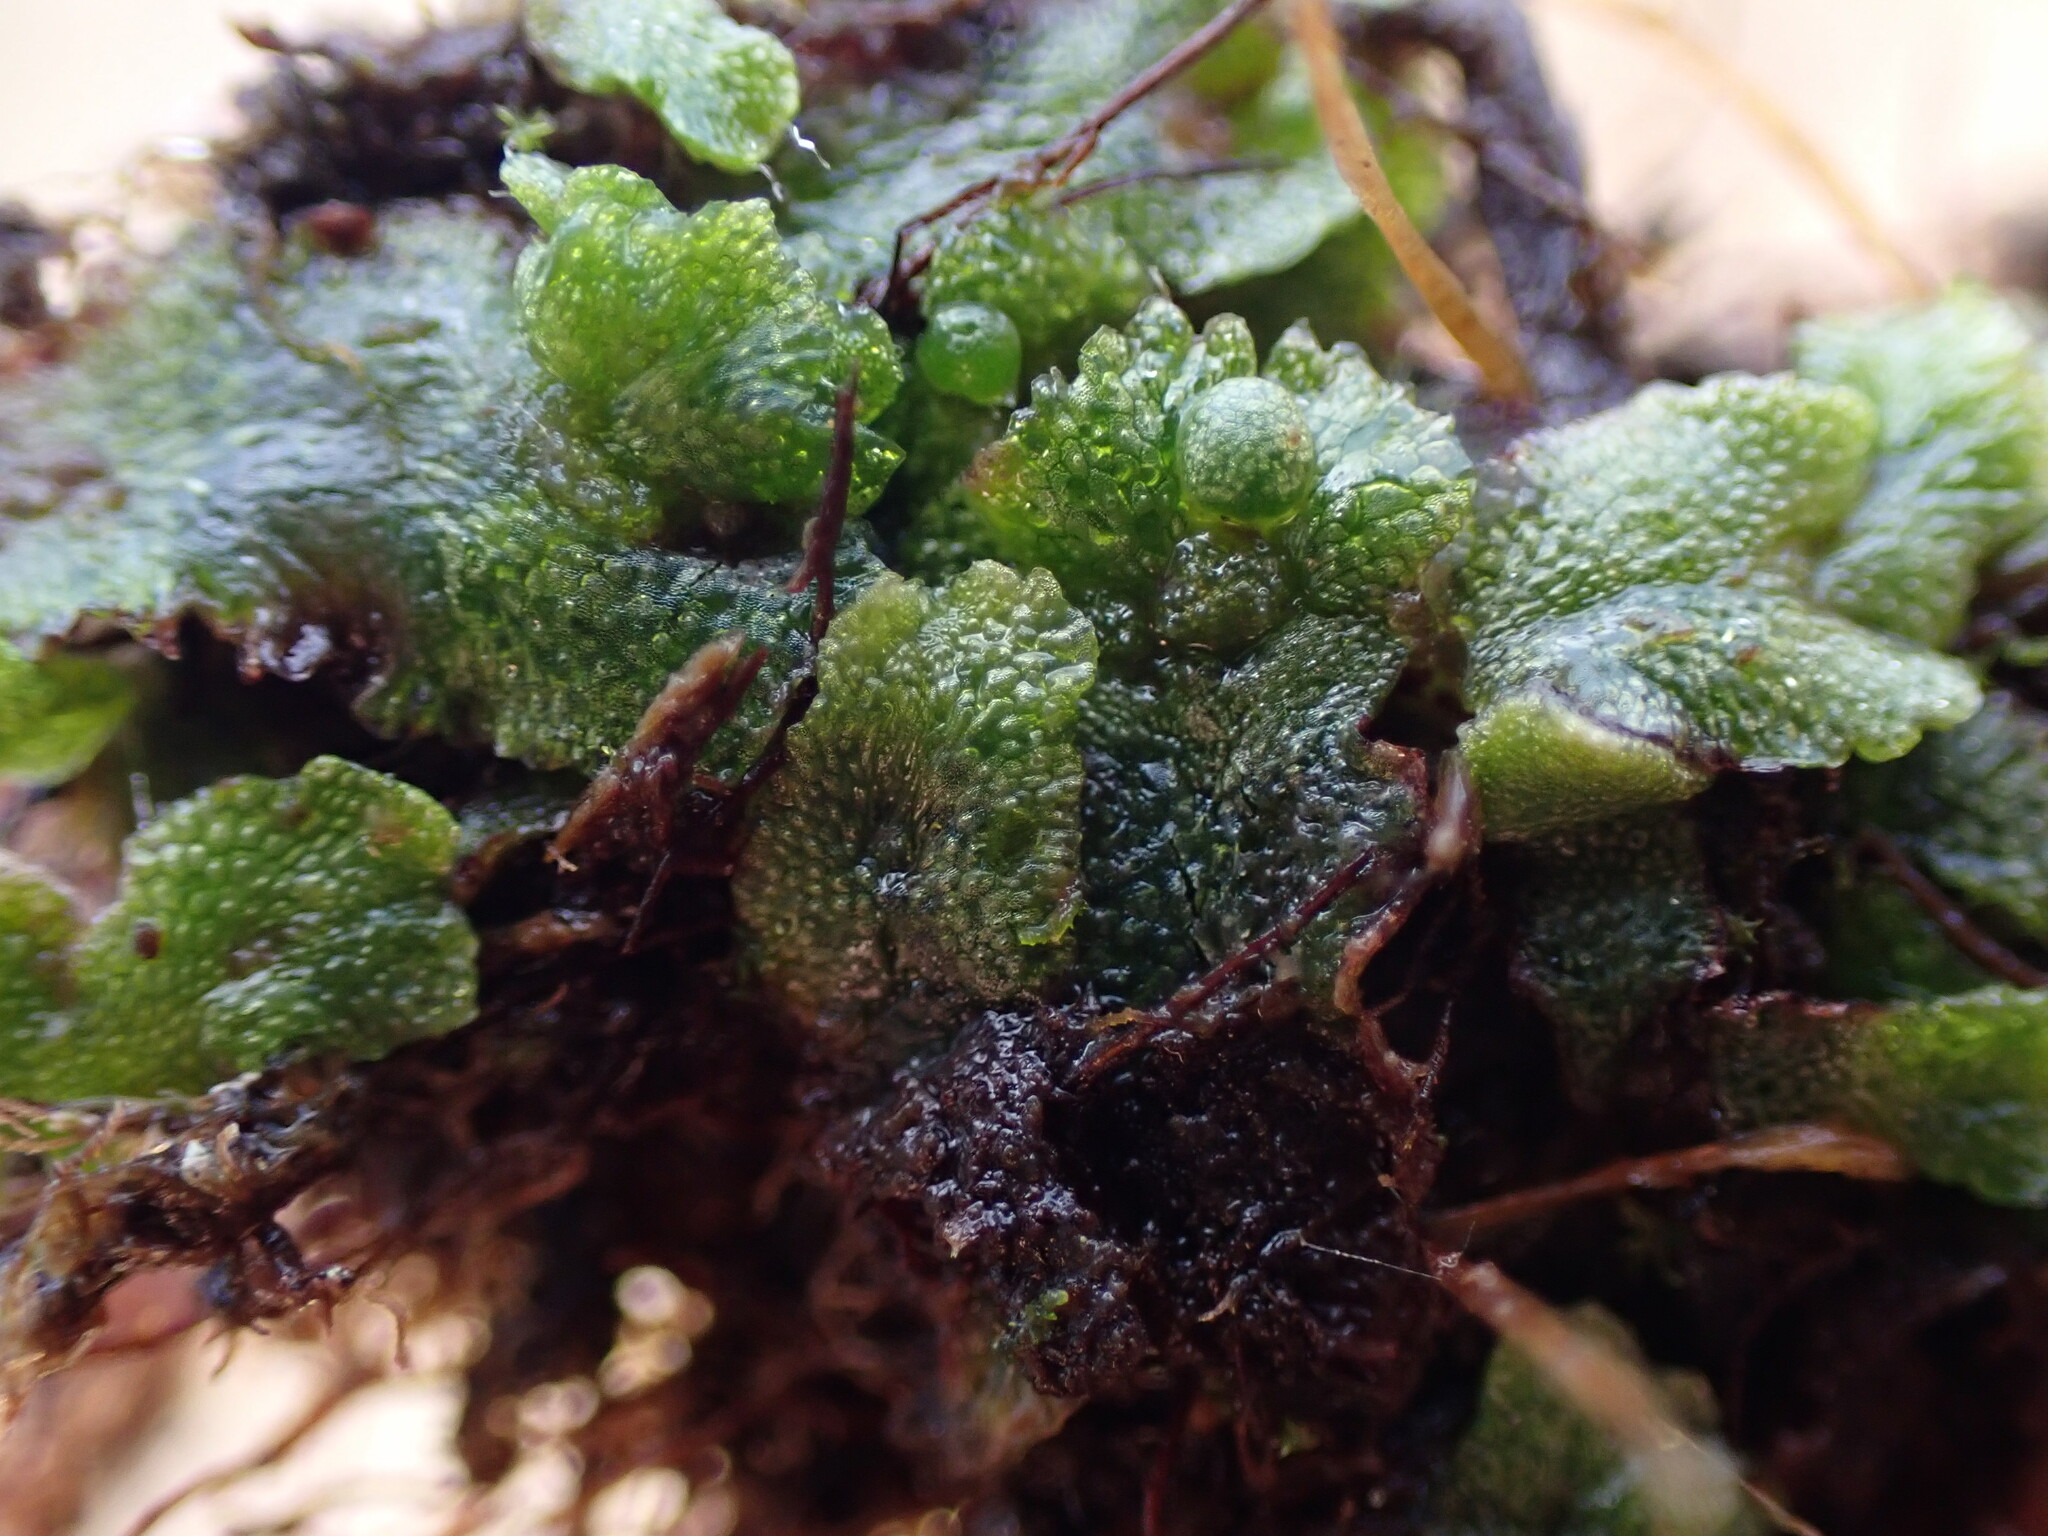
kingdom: Plantae
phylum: Marchantiophyta
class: Marchantiopsida
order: Marchantiales
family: Aytoniaceae
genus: Mannia
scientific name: Mannia gracilis
